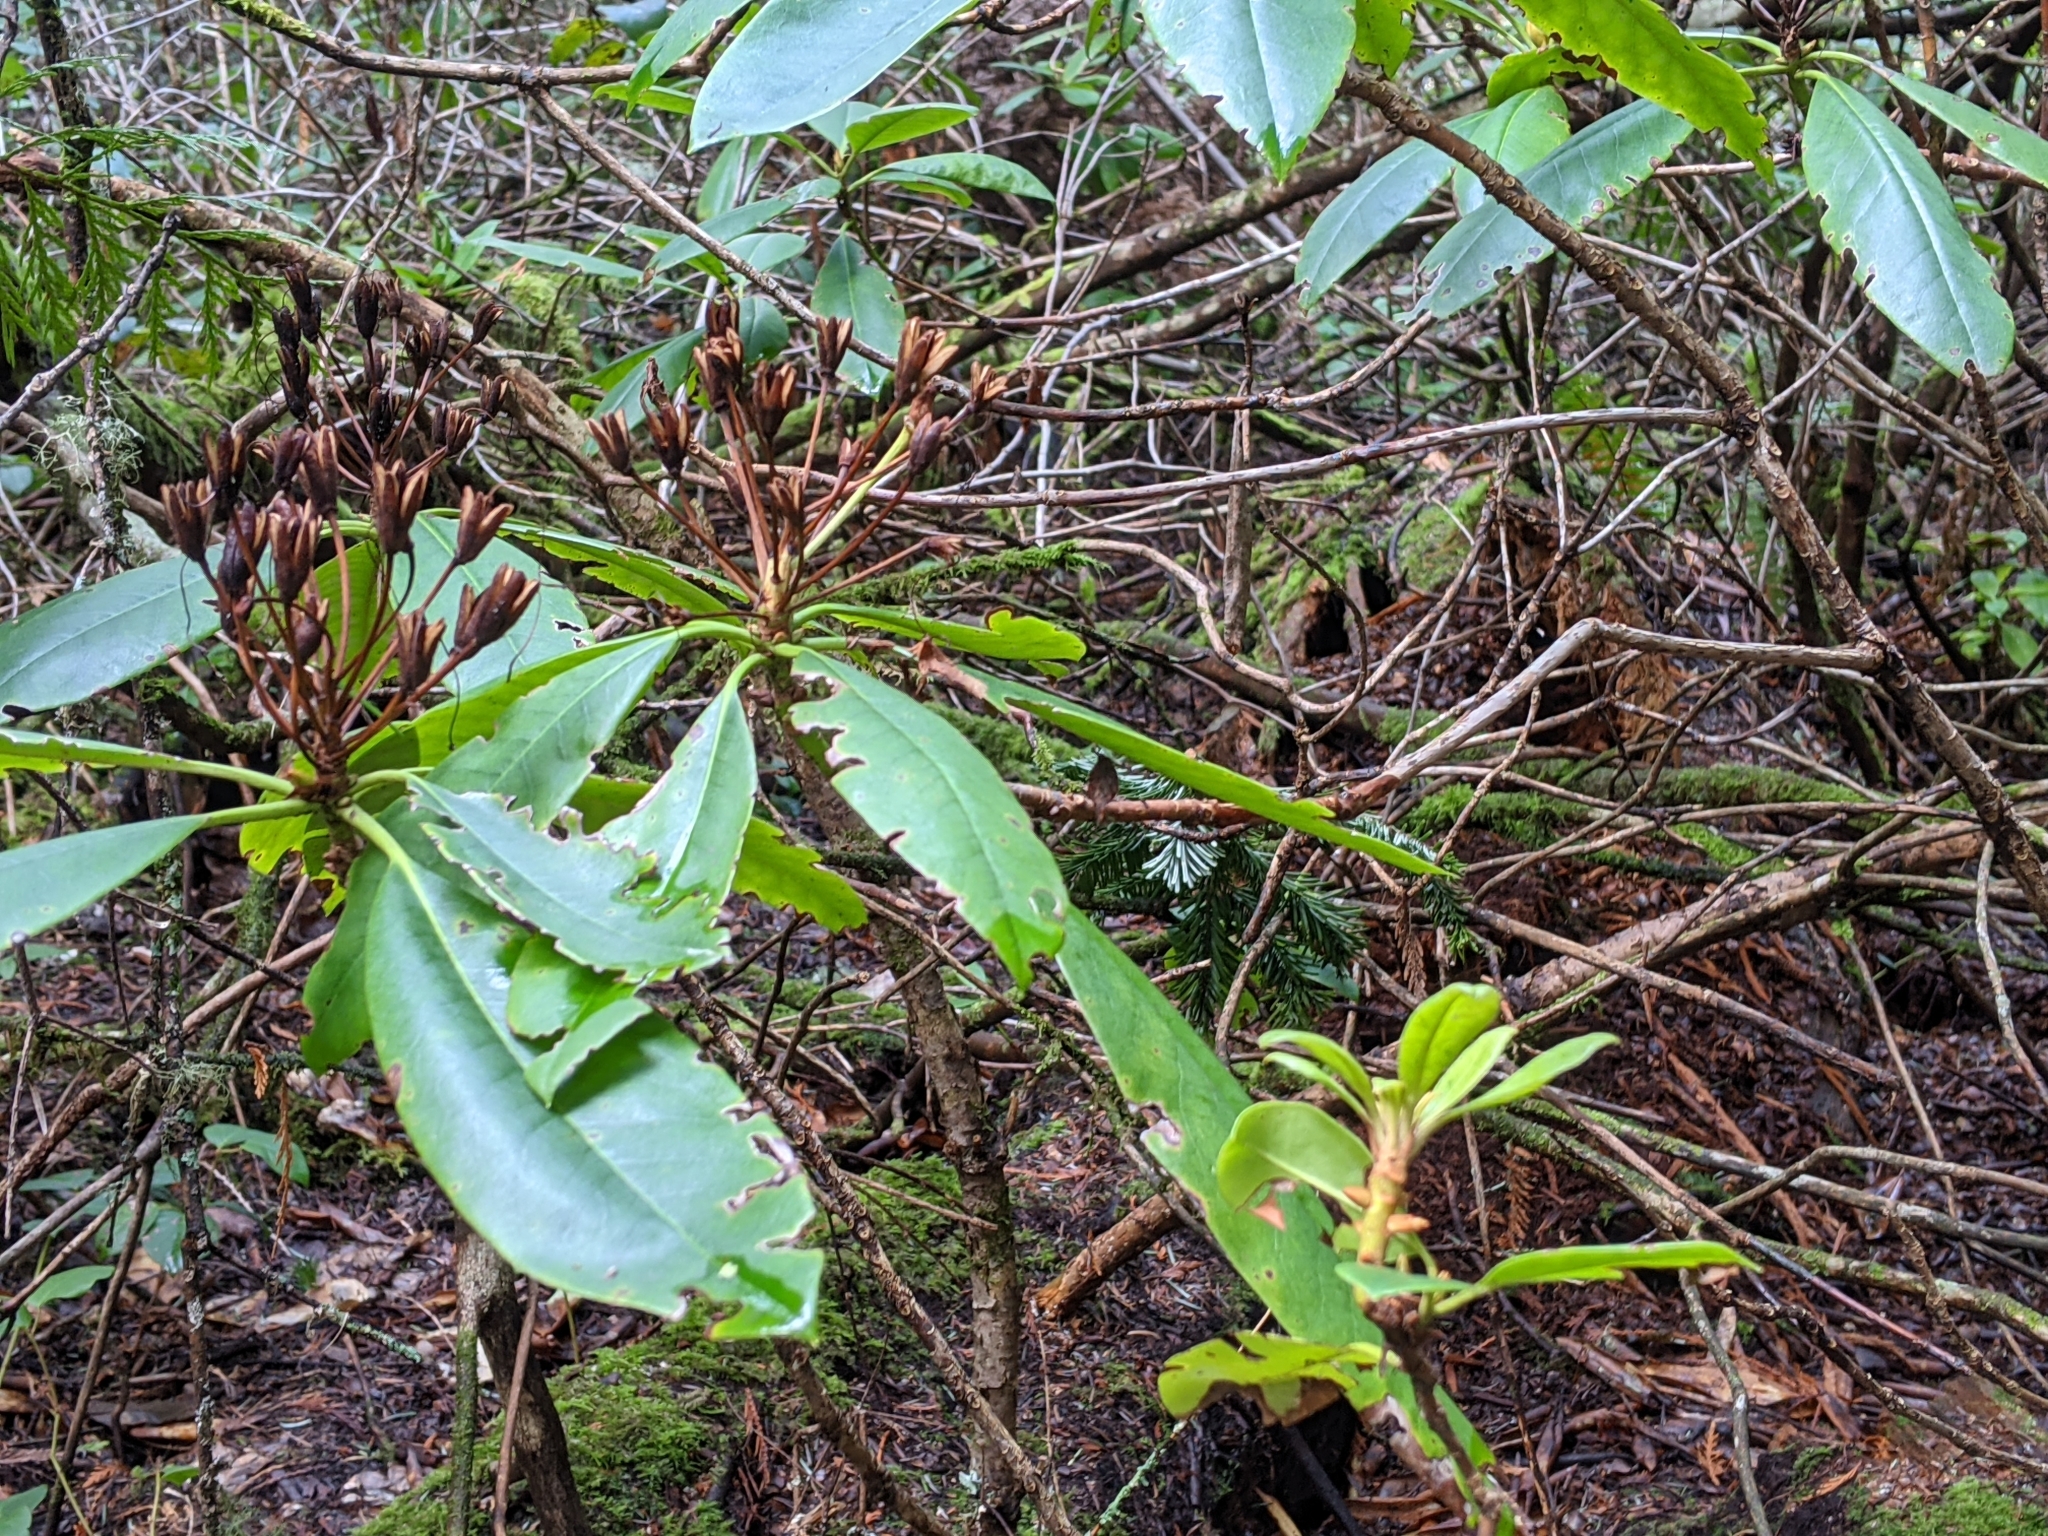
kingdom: Plantae
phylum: Tracheophyta
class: Magnoliopsida
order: Ericales
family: Ericaceae
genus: Rhododendron
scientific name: Rhododendron macrophyllum
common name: California rose bay
